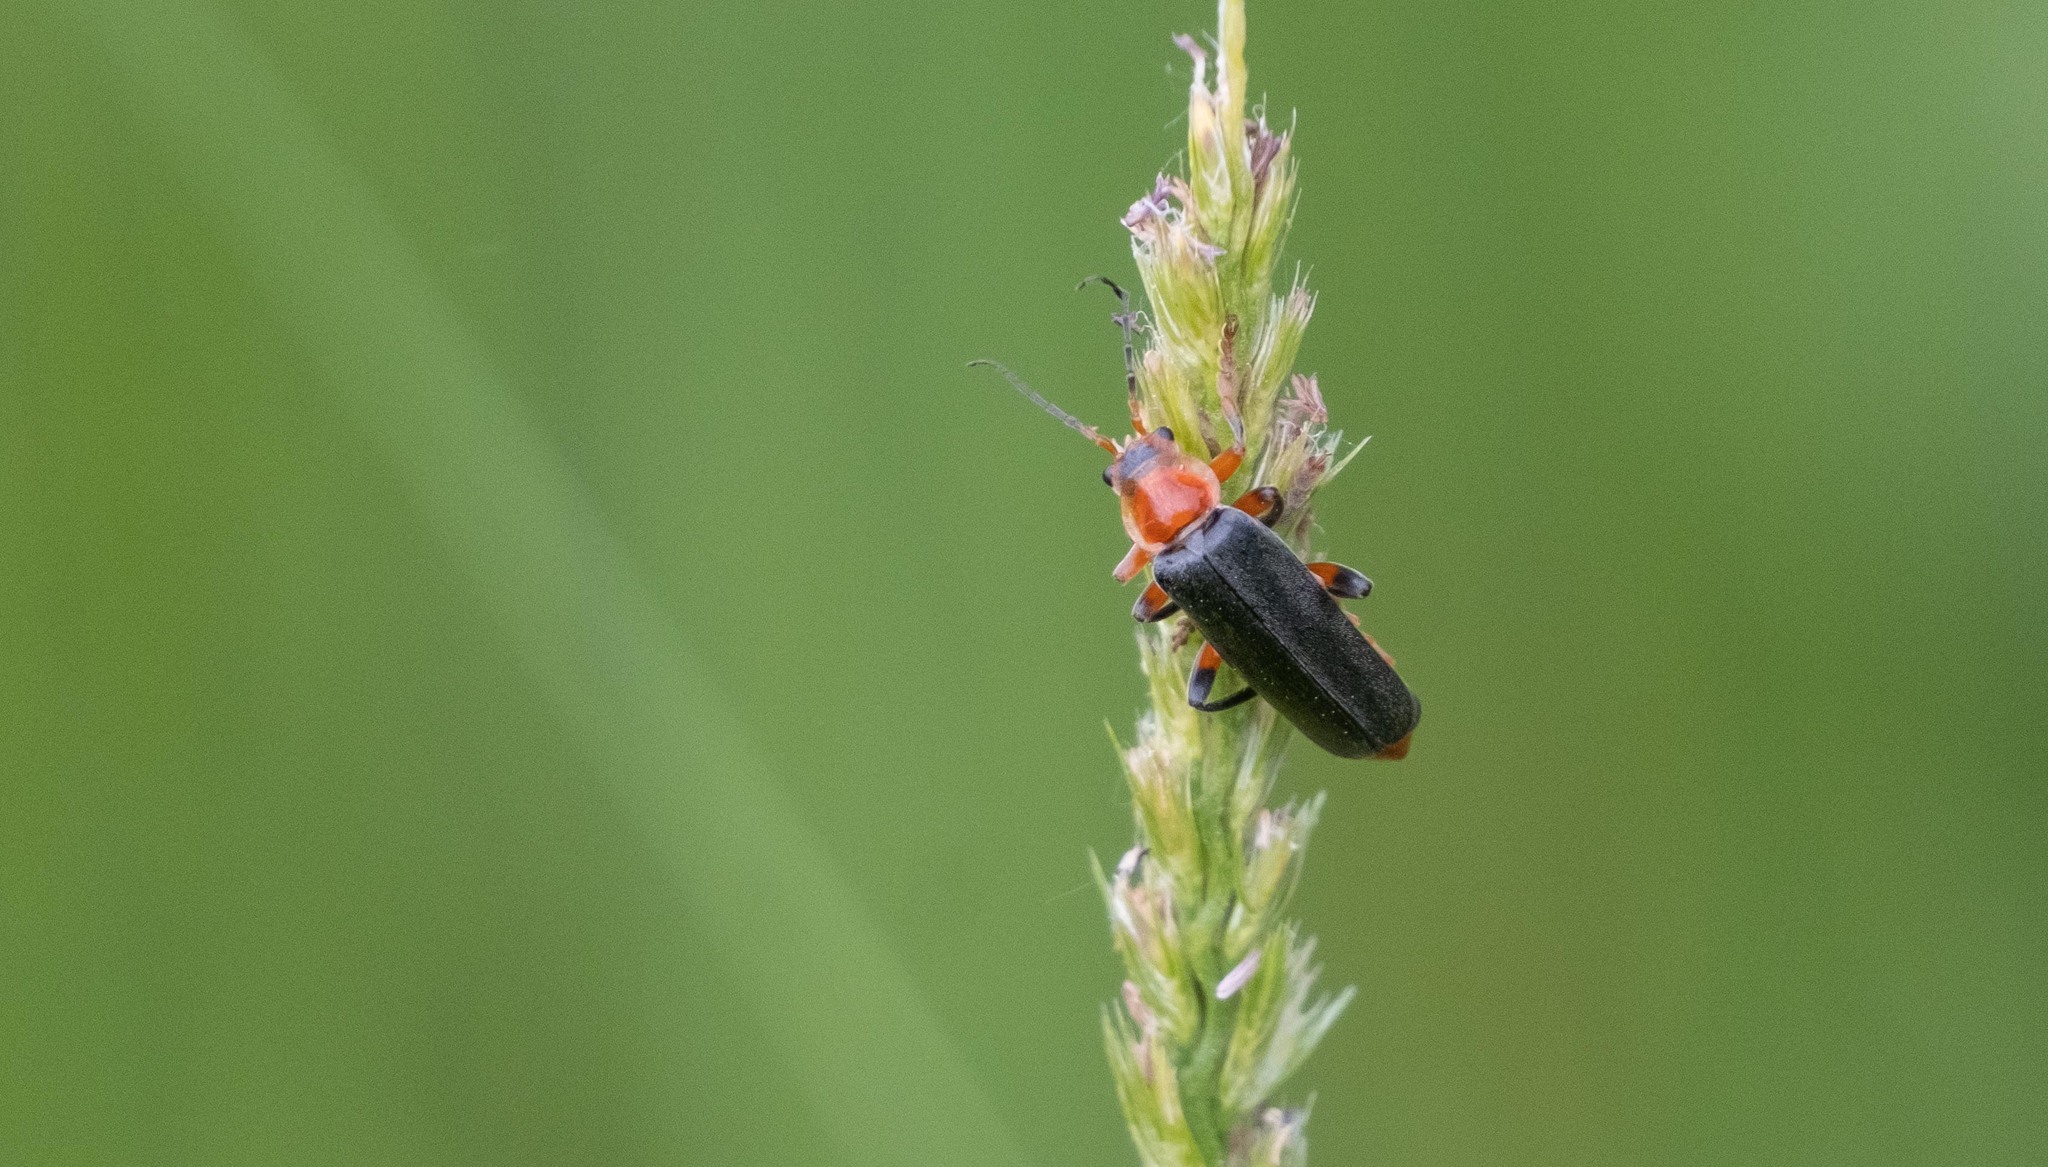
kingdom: Animalia
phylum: Arthropoda
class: Insecta
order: Coleoptera
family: Cantharidae
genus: Cantharis
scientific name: Cantharis livida
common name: Livid soldier beetle
